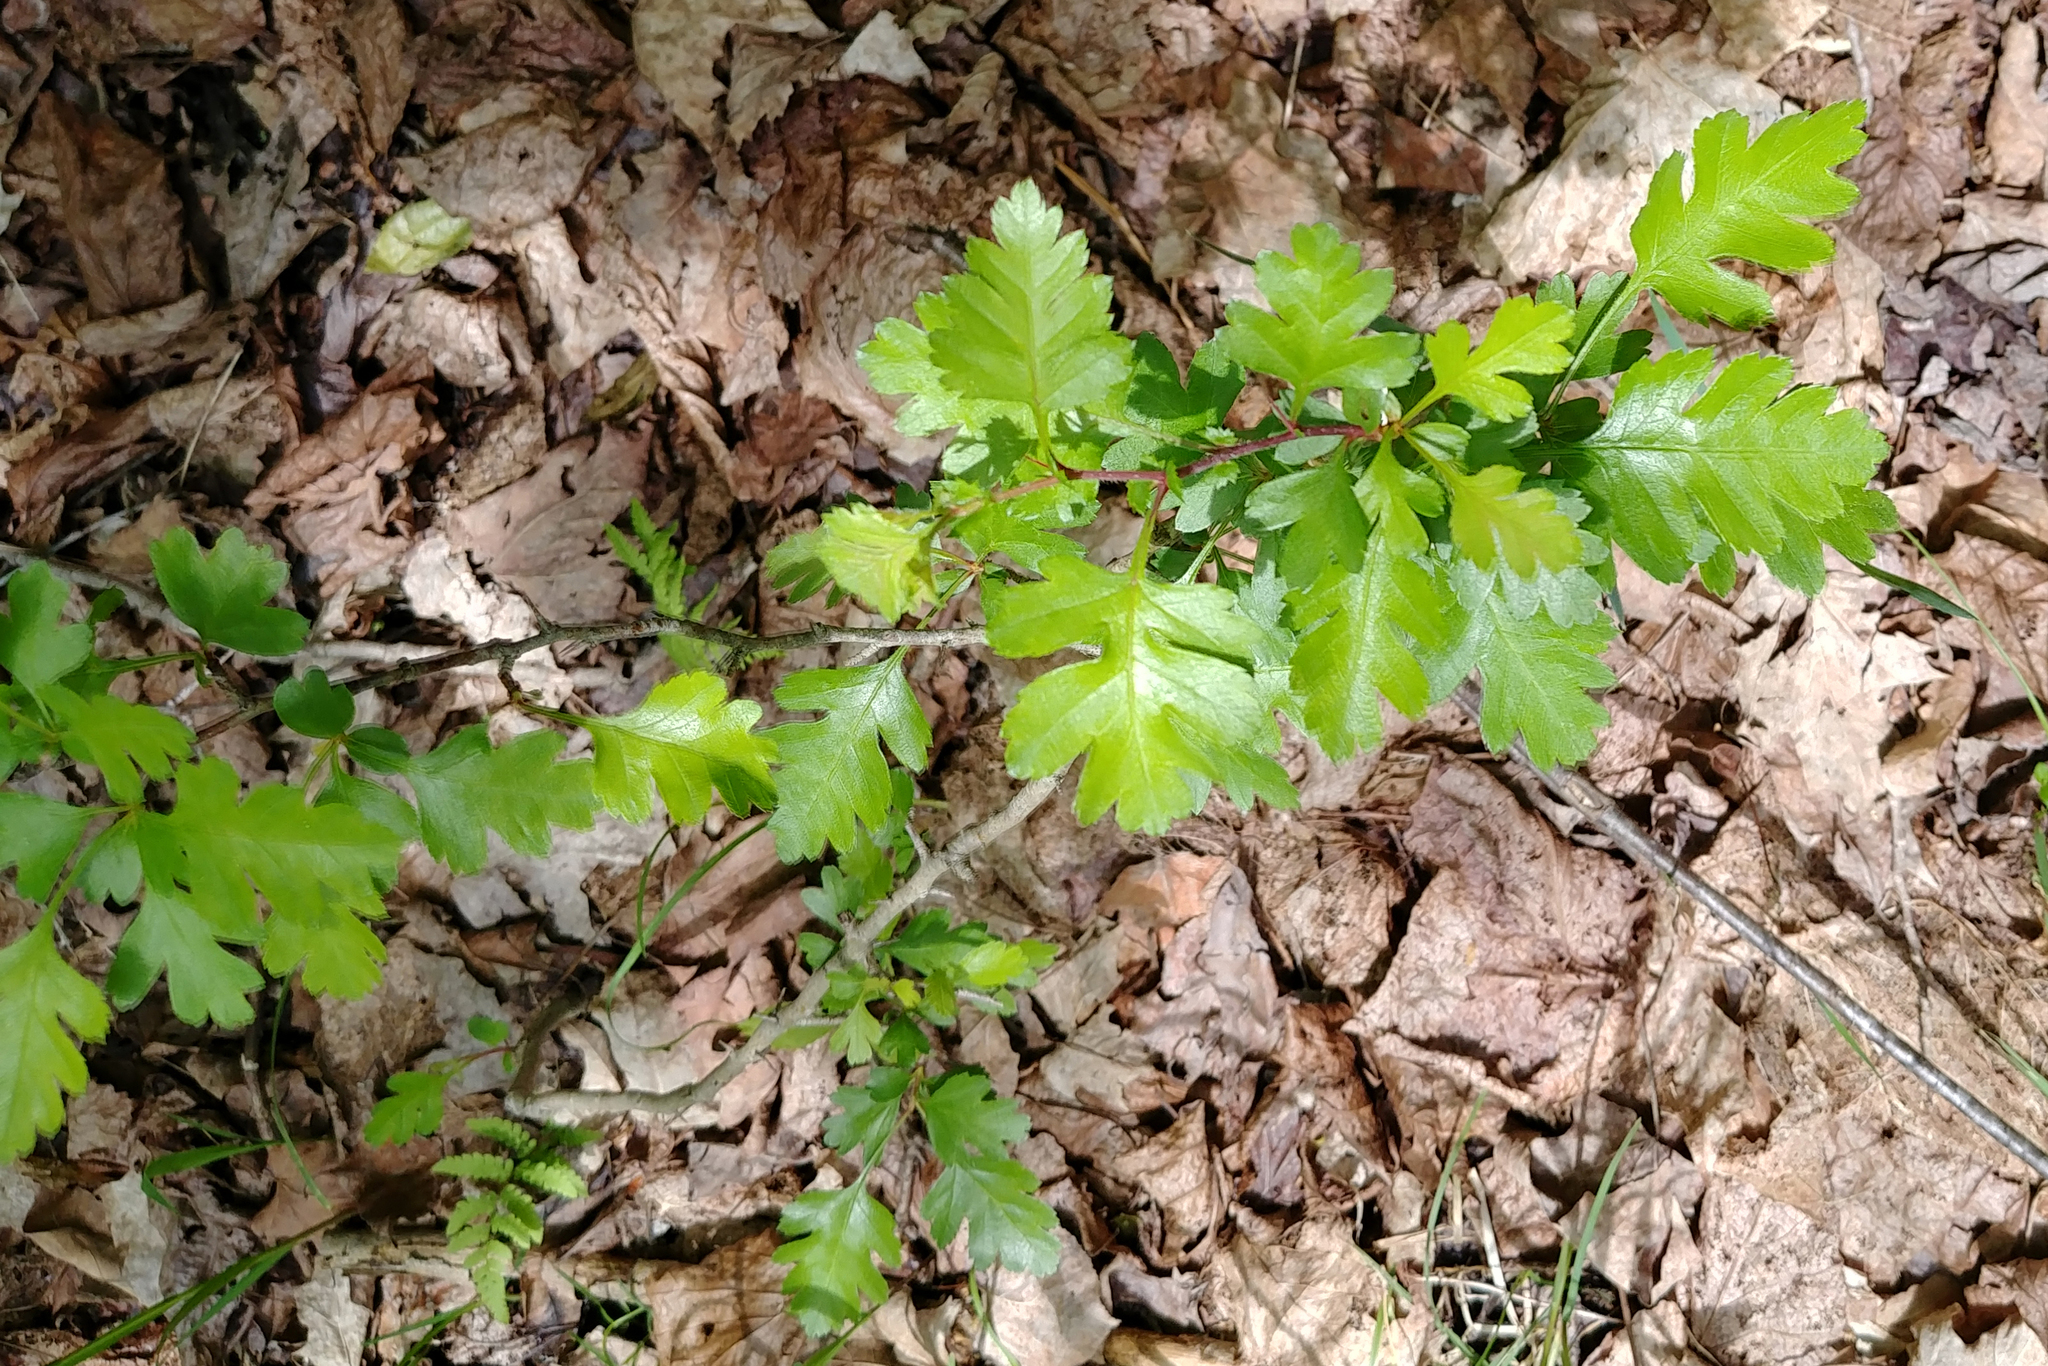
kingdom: Plantae
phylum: Tracheophyta
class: Magnoliopsida
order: Rosales
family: Rosaceae
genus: Crataegus
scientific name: Crataegus monogyna
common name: Hawthorn
